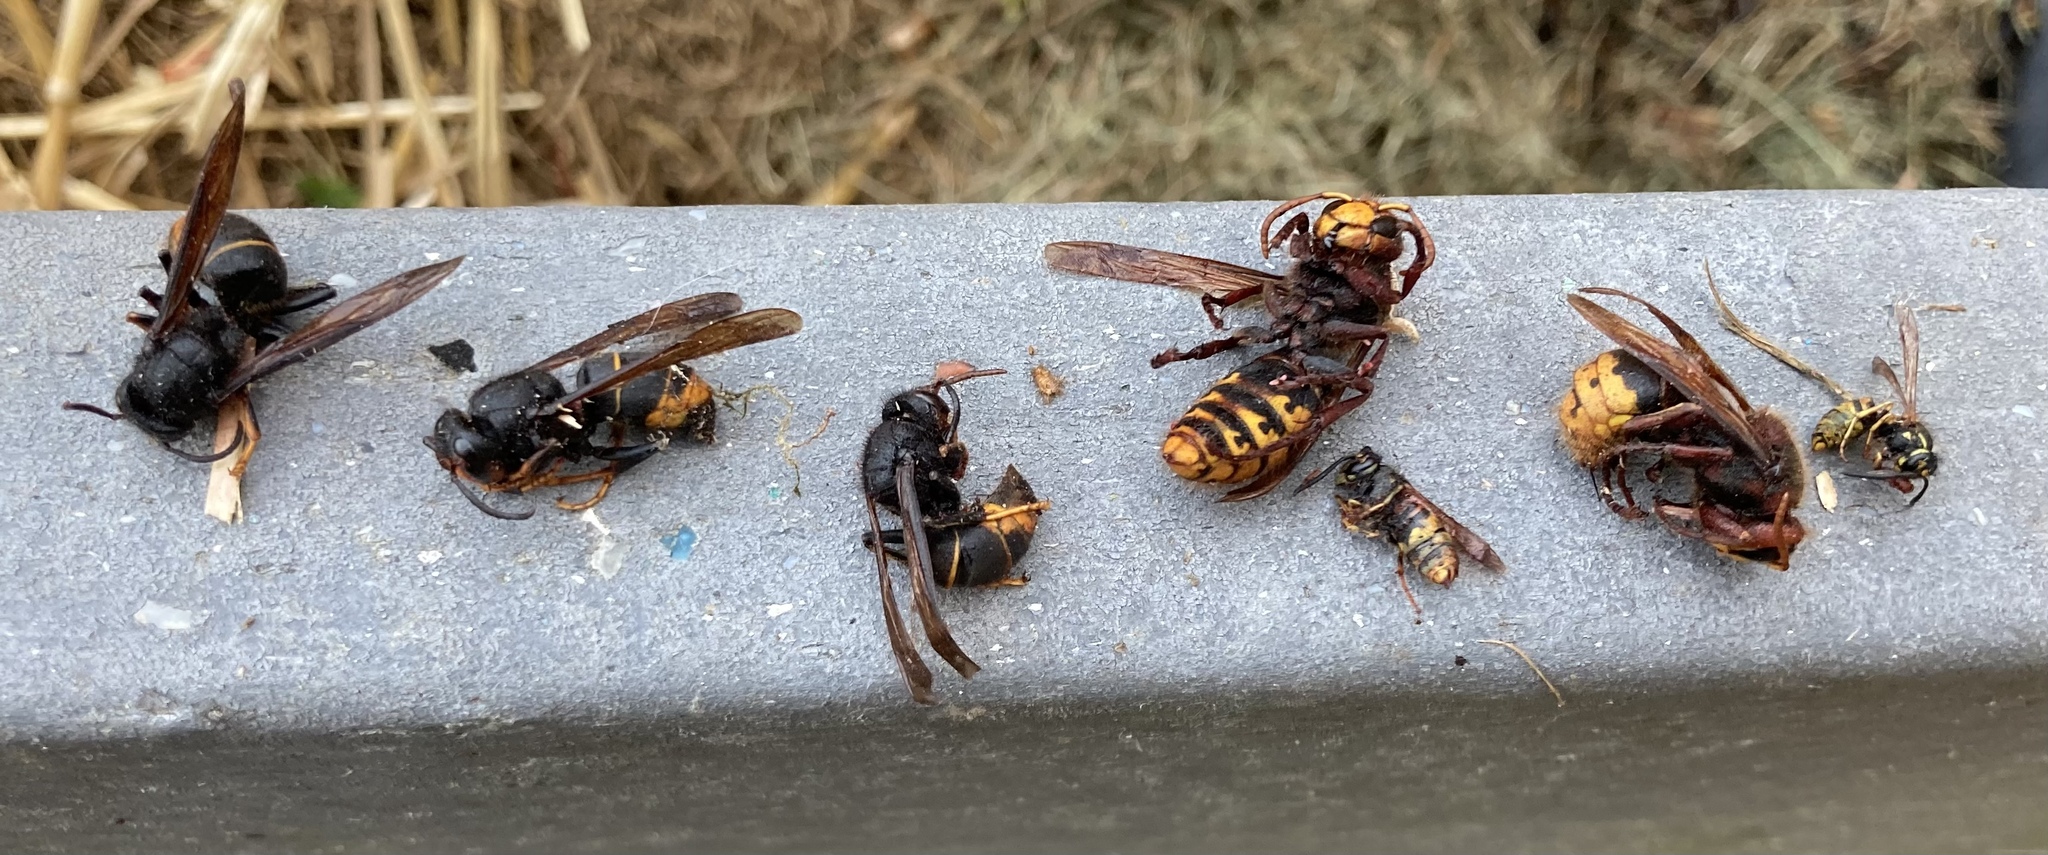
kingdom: Animalia
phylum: Arthropoda
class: Insecta
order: Hymenoptera
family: Vespidae
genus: Vespa
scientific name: Vespa velutina
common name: Asian hornet
